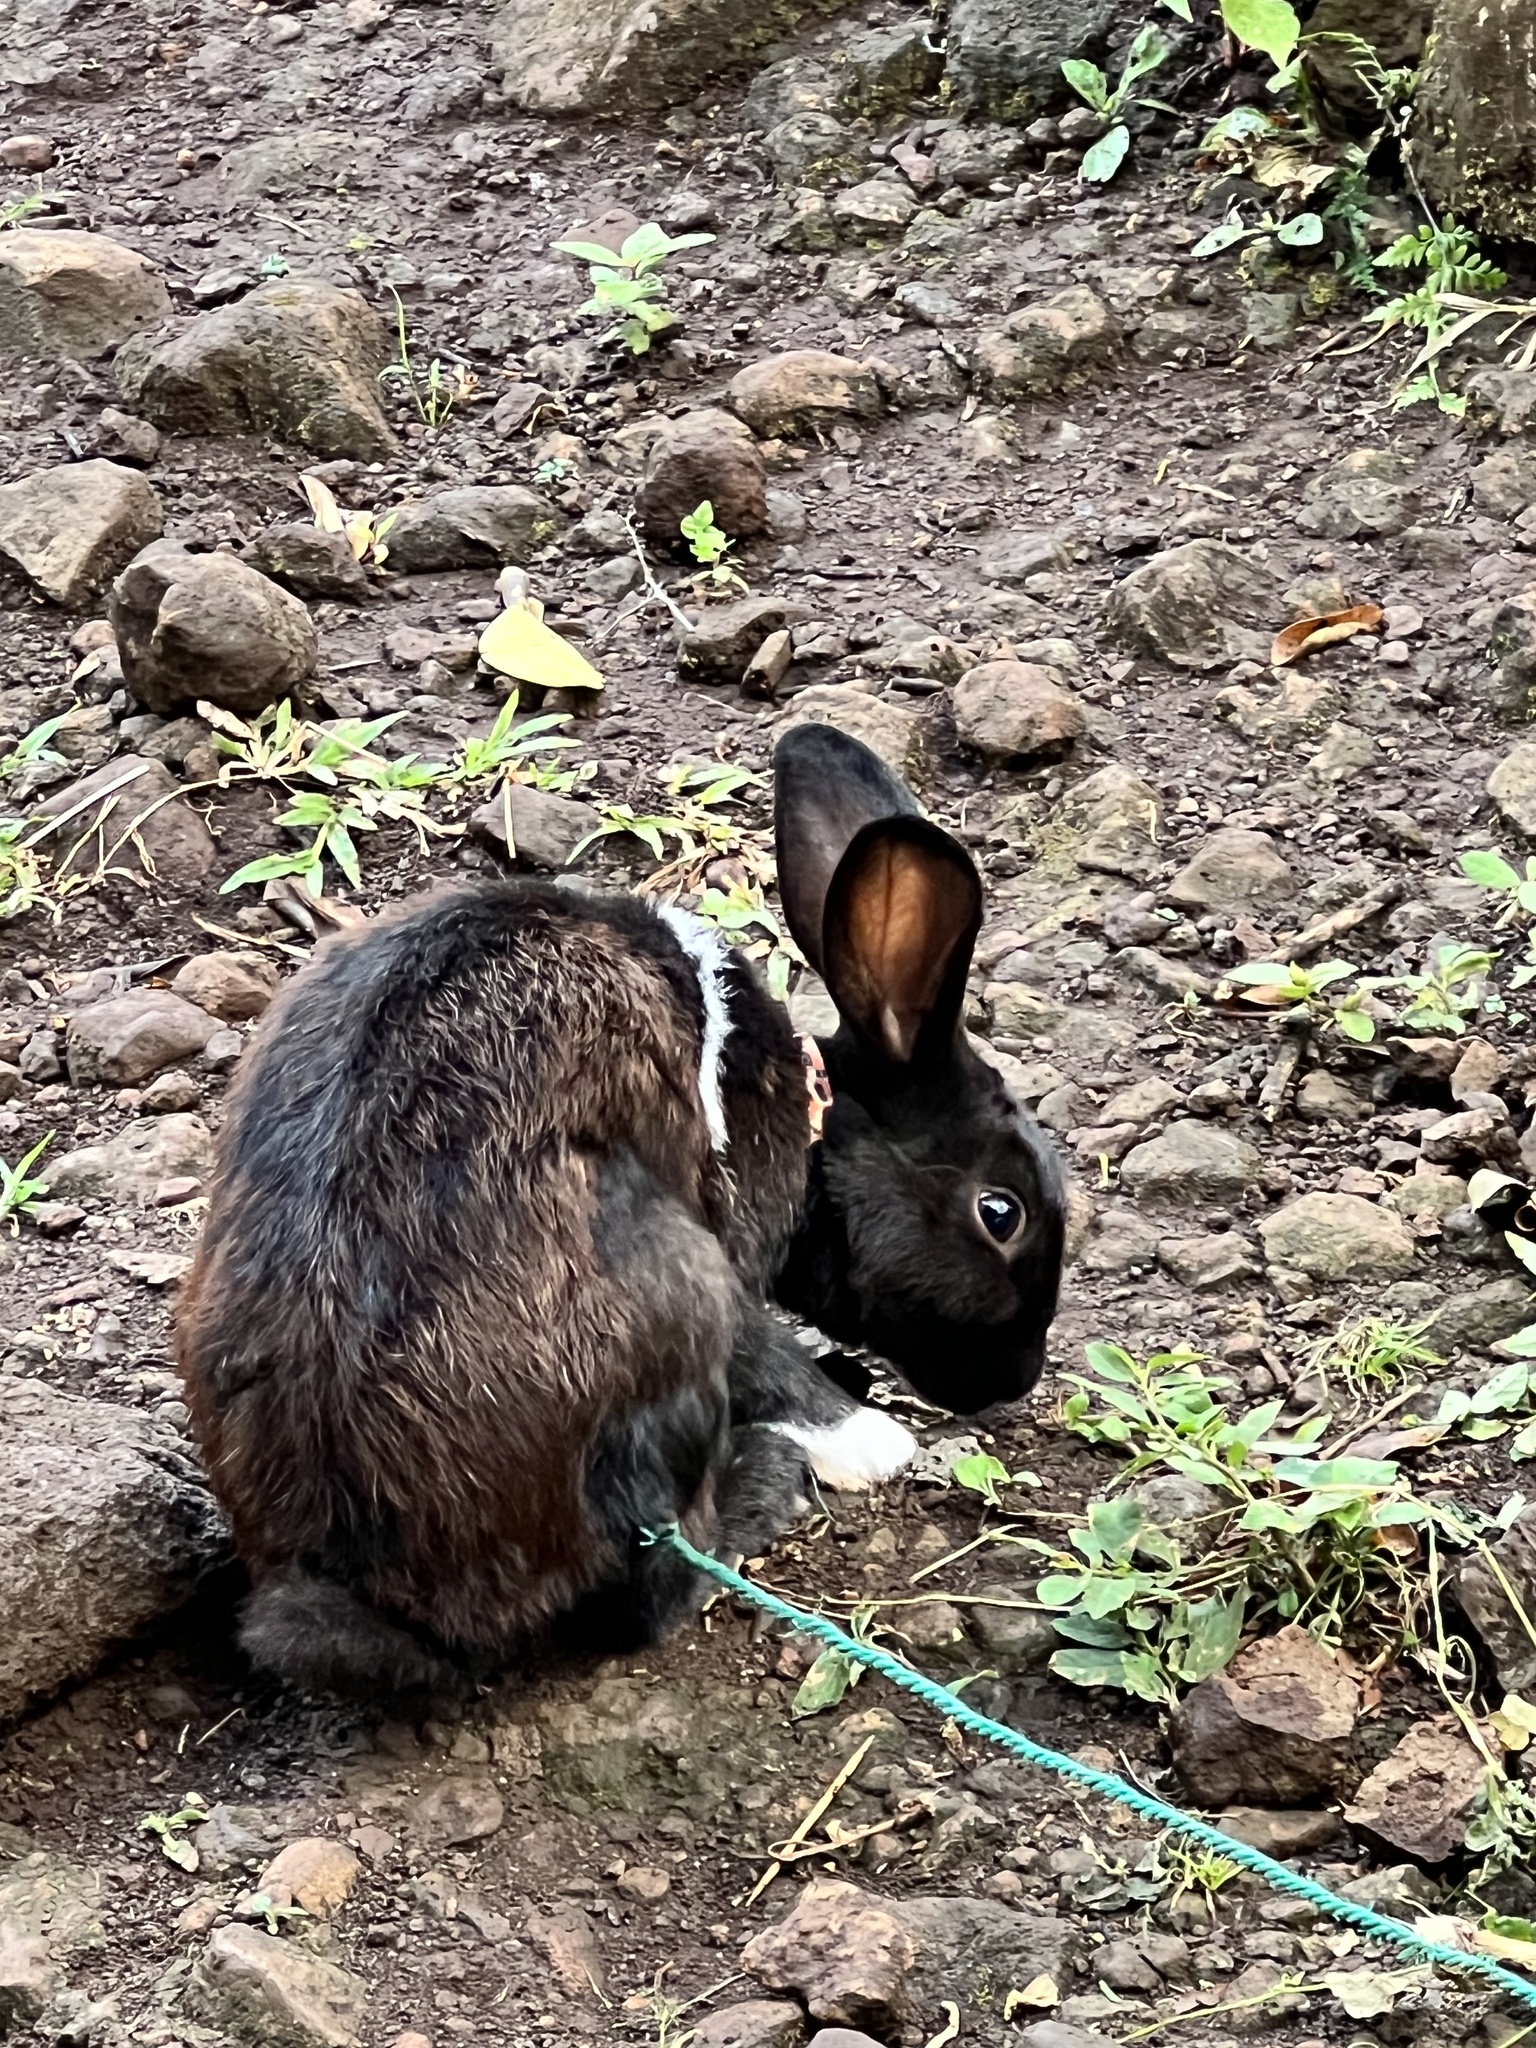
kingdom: Animalia
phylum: Chordata
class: Mammalia
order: Lagomorpha
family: Leporidae
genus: Oryctolagus
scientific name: Oryctolagus cuniculus
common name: European rabbit
